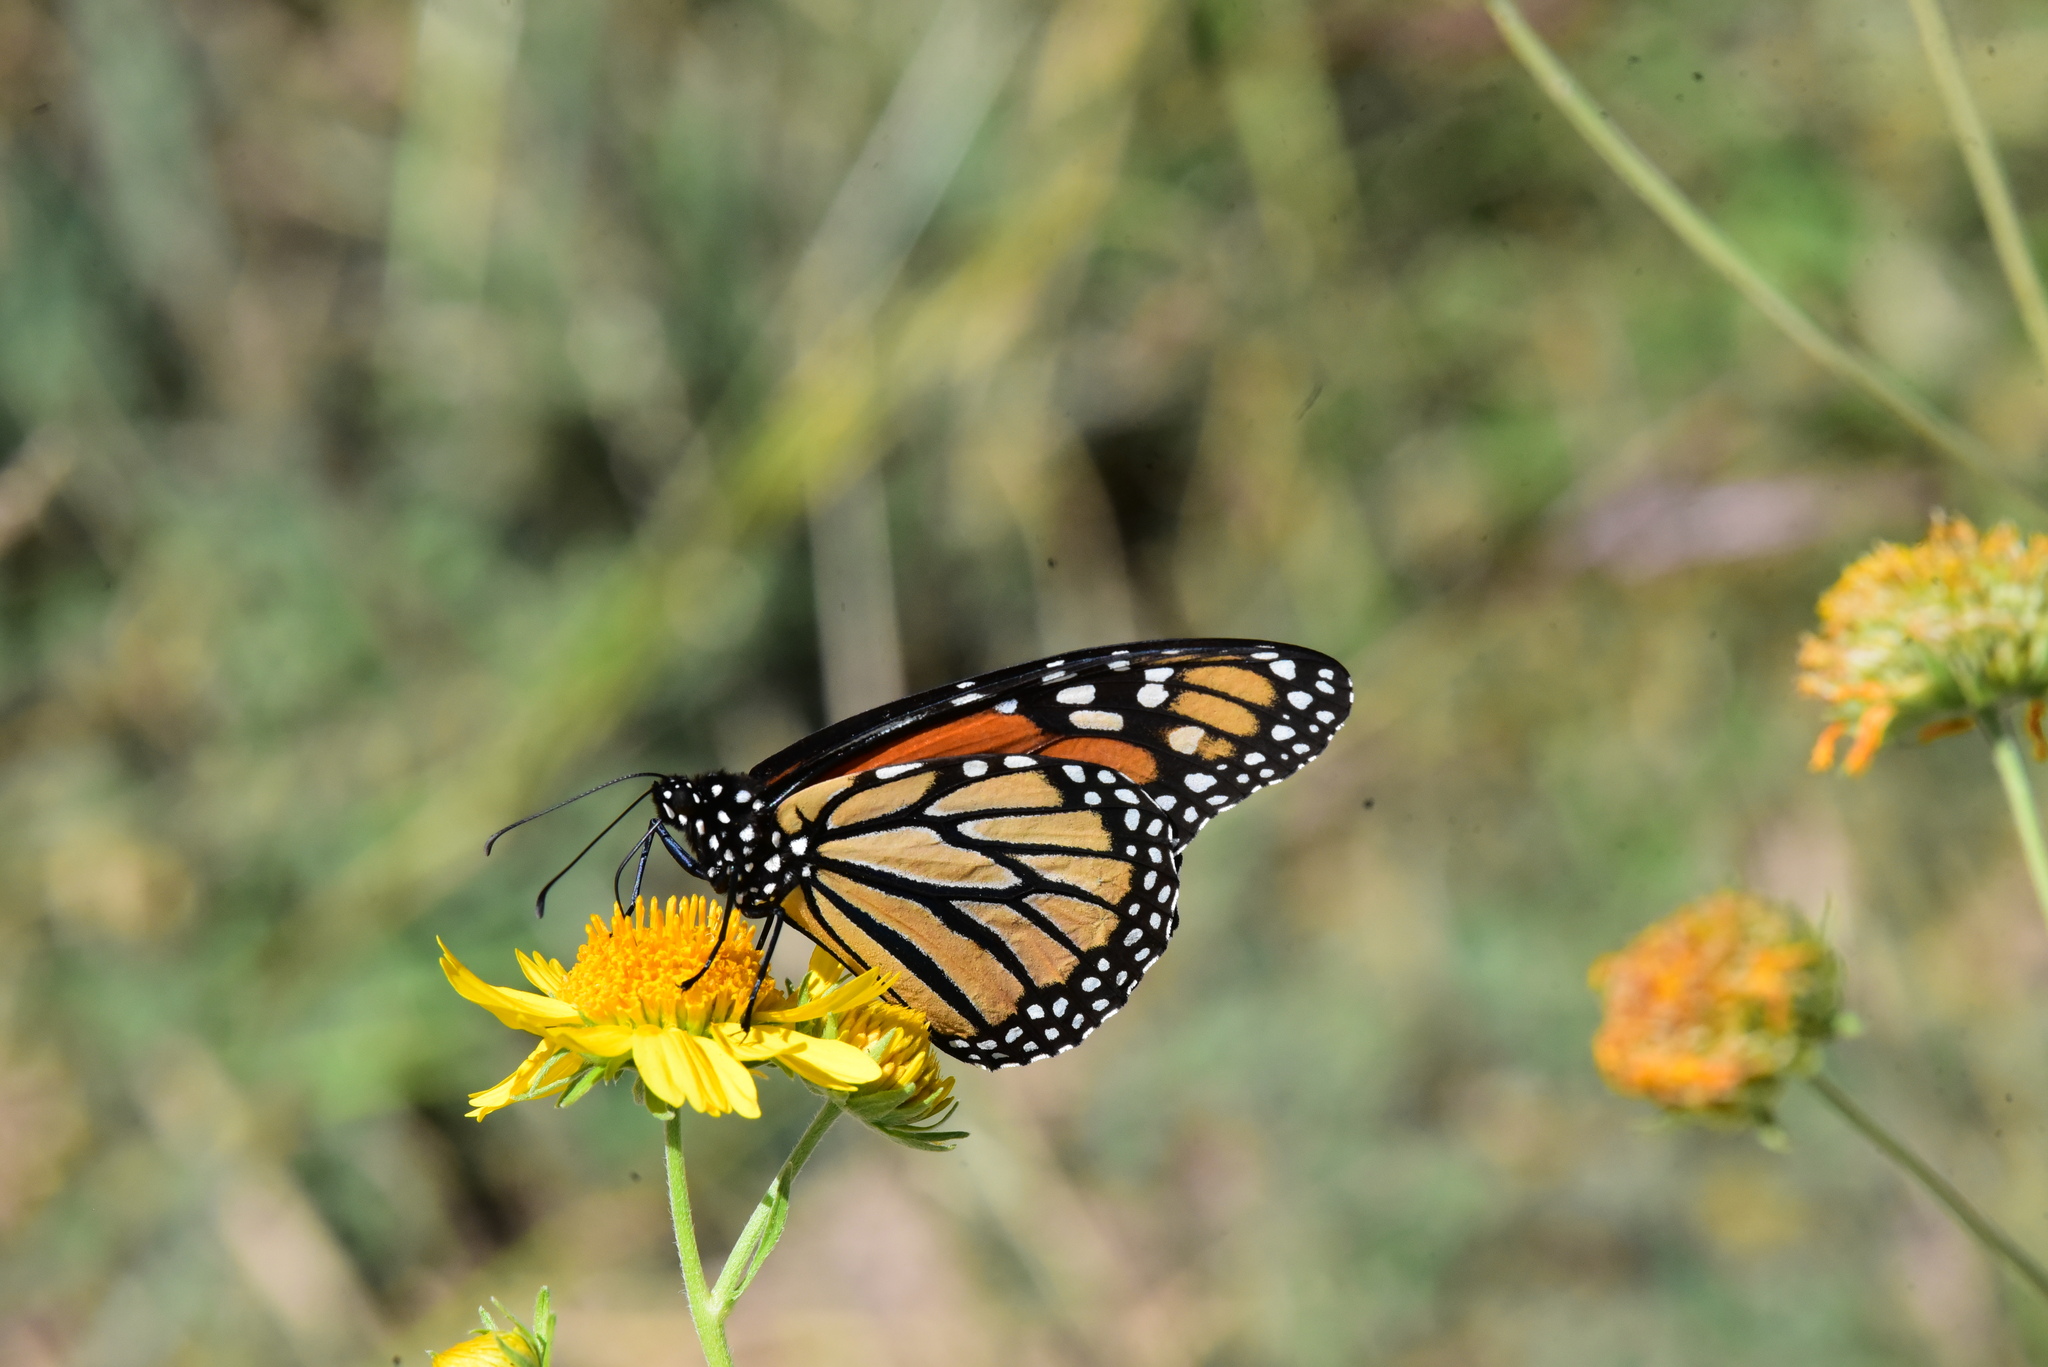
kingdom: Animalia
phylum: Arthropoda
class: Insecta
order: Lepidoptera
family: Nymphalidae
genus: Danaus
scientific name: Danaus plexippus
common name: Monarch
